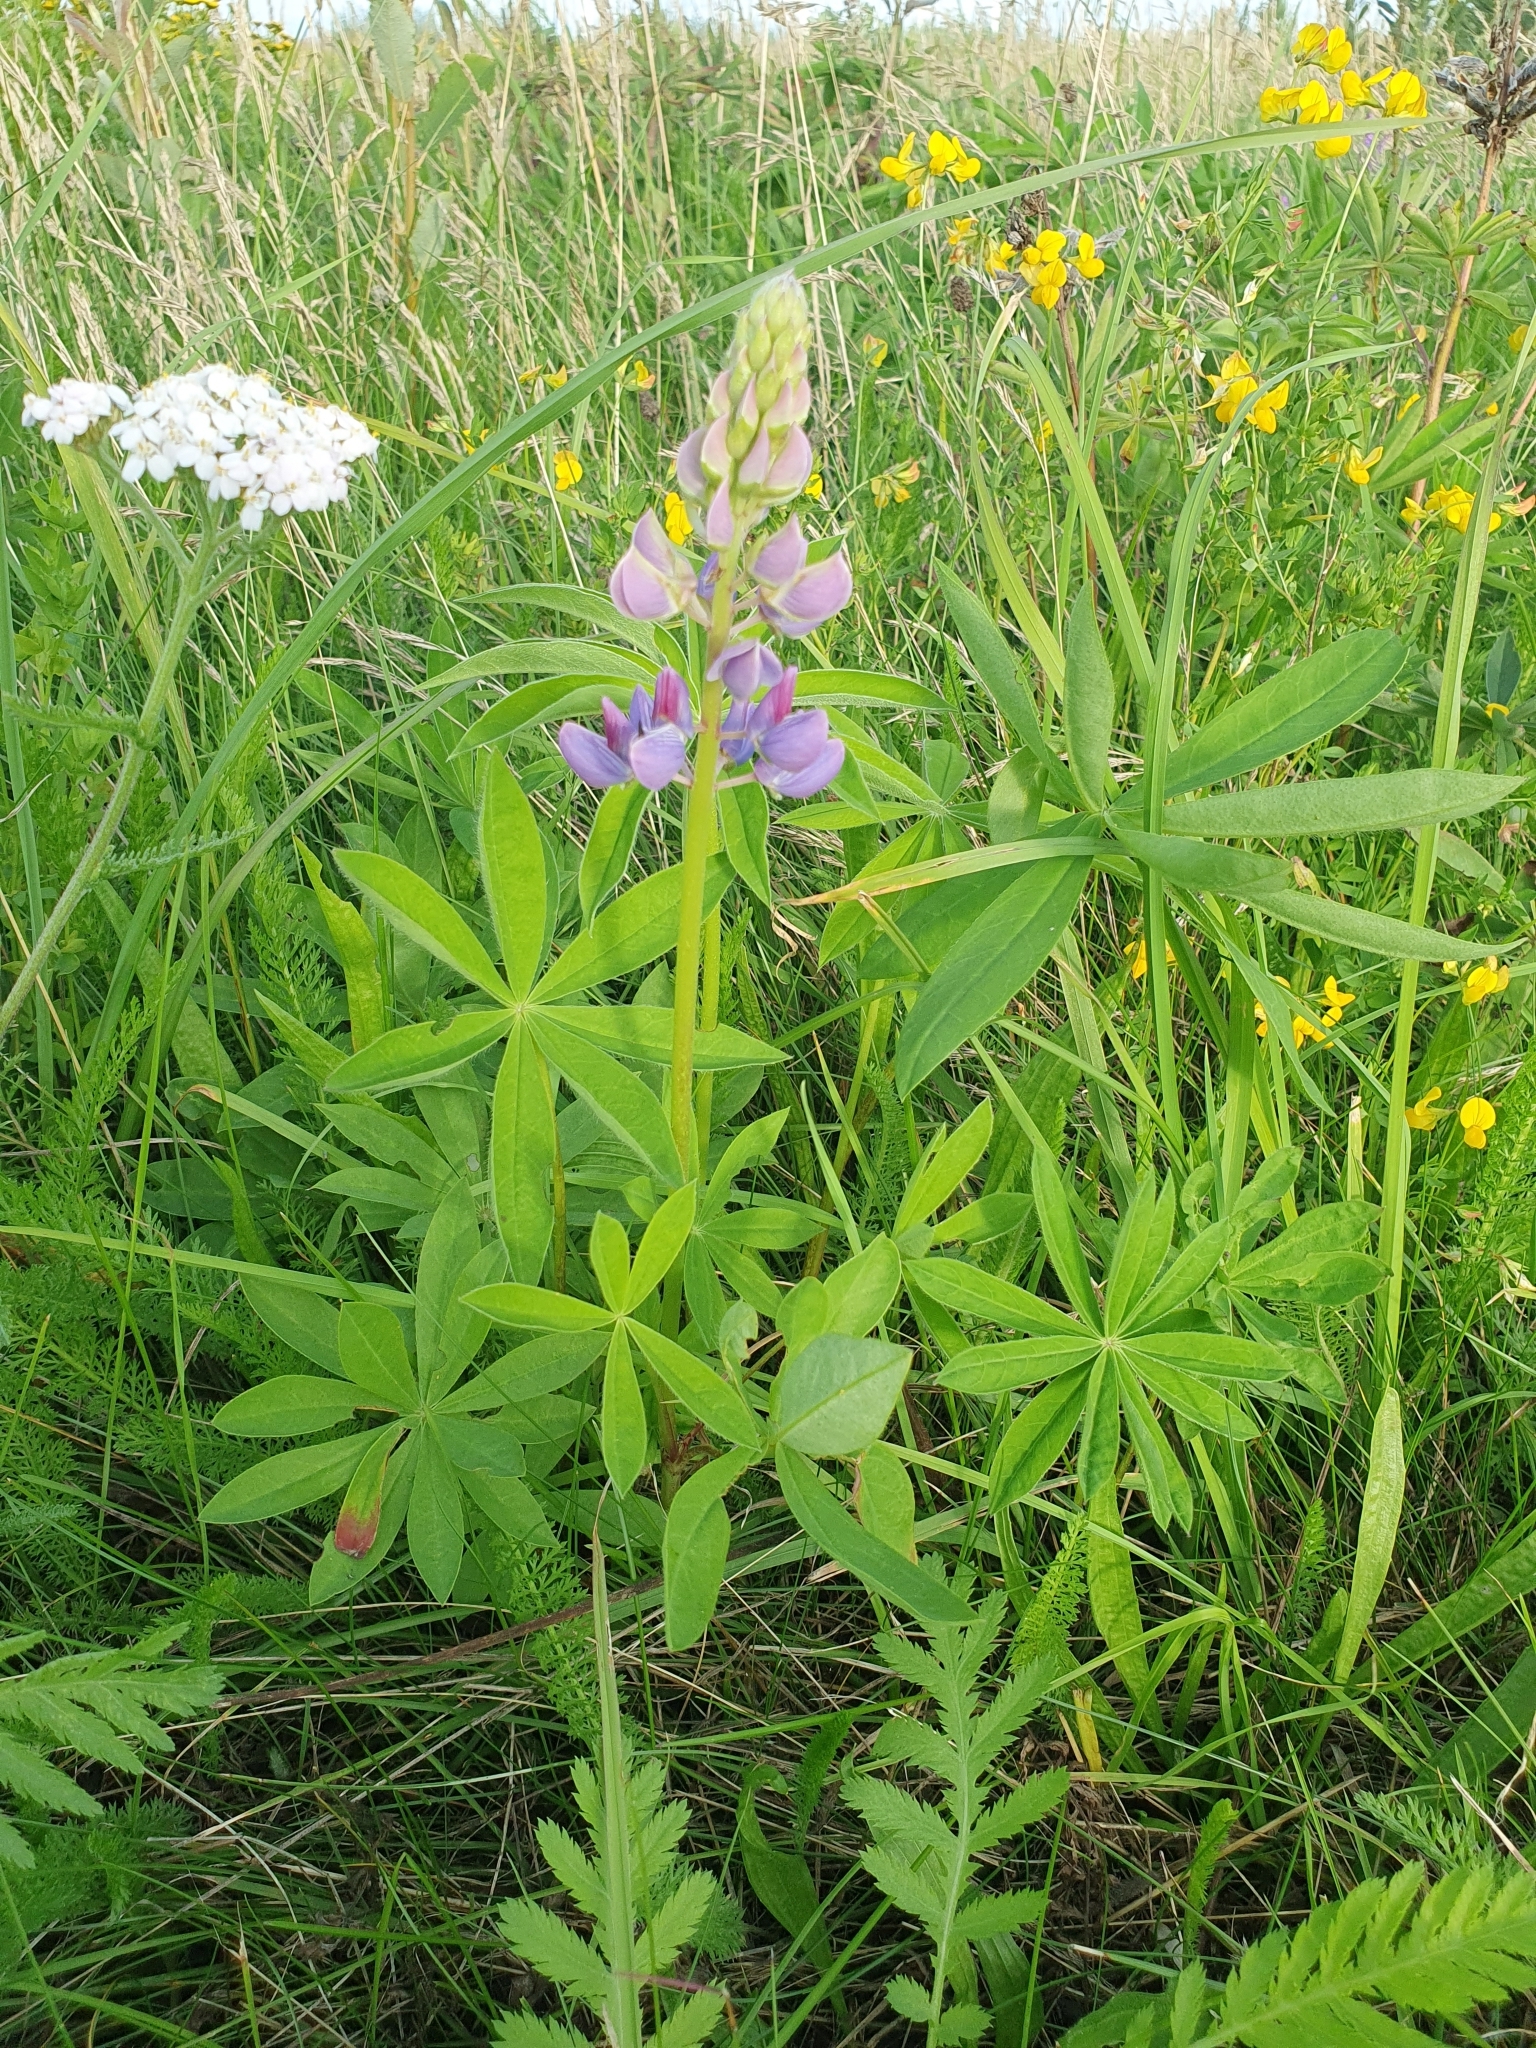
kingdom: Plantae
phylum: Tracheophyta
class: Magnoliopsida
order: Fabales
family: Fabaceae
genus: Lupinus
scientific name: Lupinus polyphyllus
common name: Garden lupin
